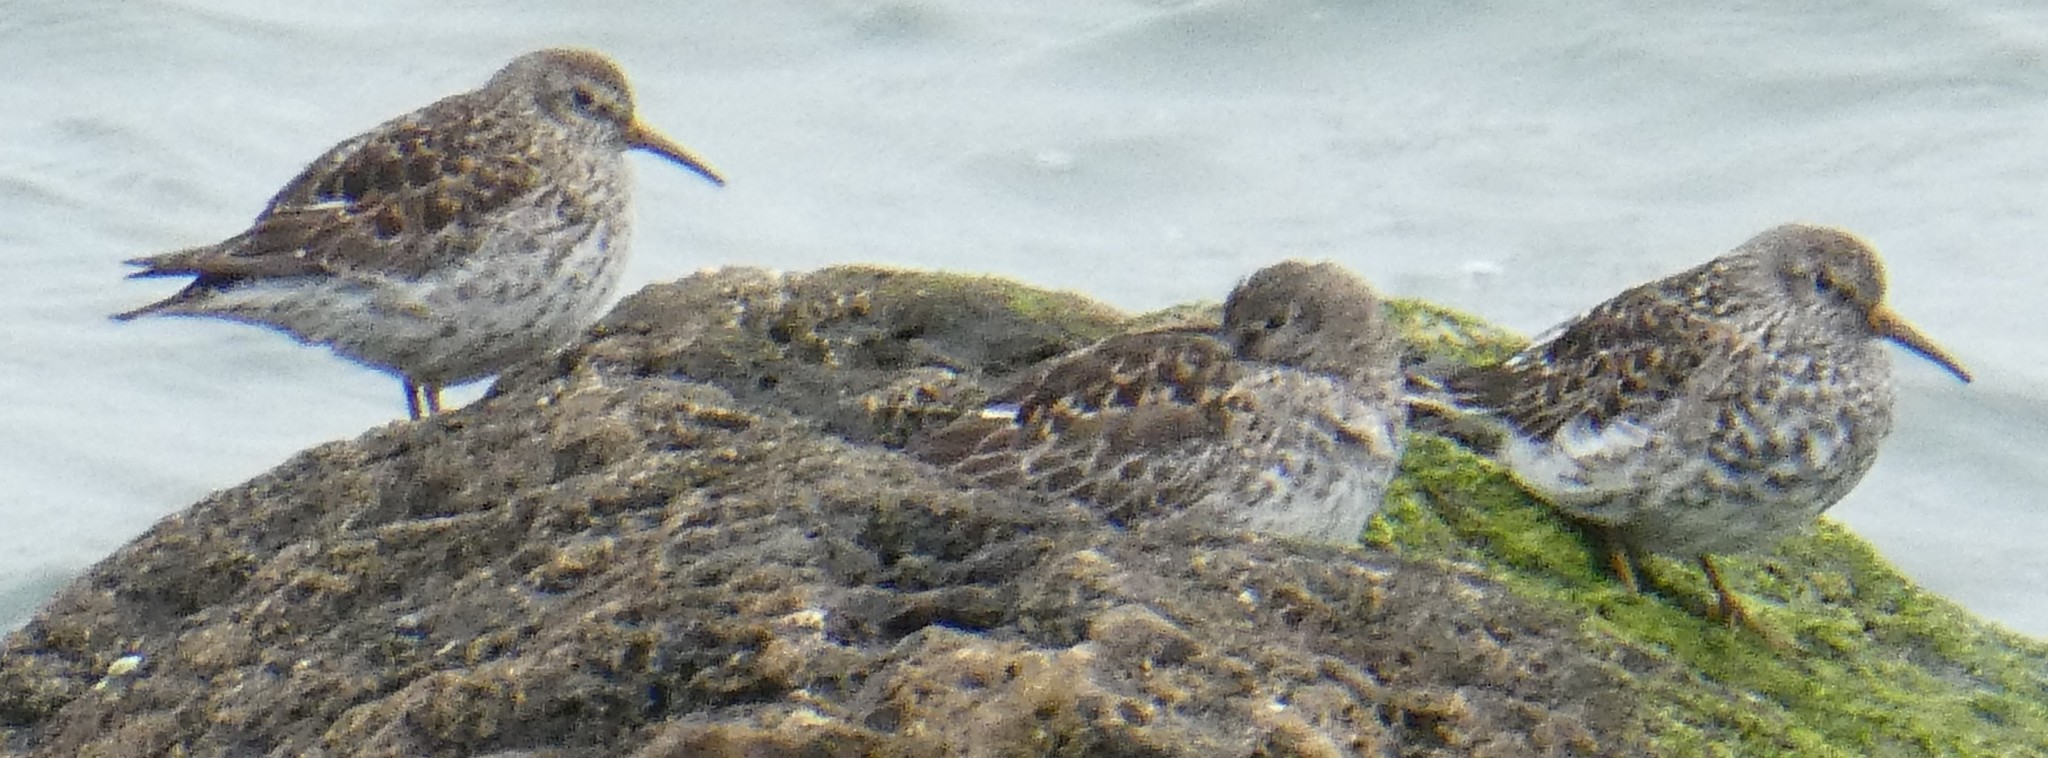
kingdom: Animalia
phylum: Chordata
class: Aves
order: Charadriiformes
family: Scolopacidae
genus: Calidris
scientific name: Calidris maritima
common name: Purple sandpiper
